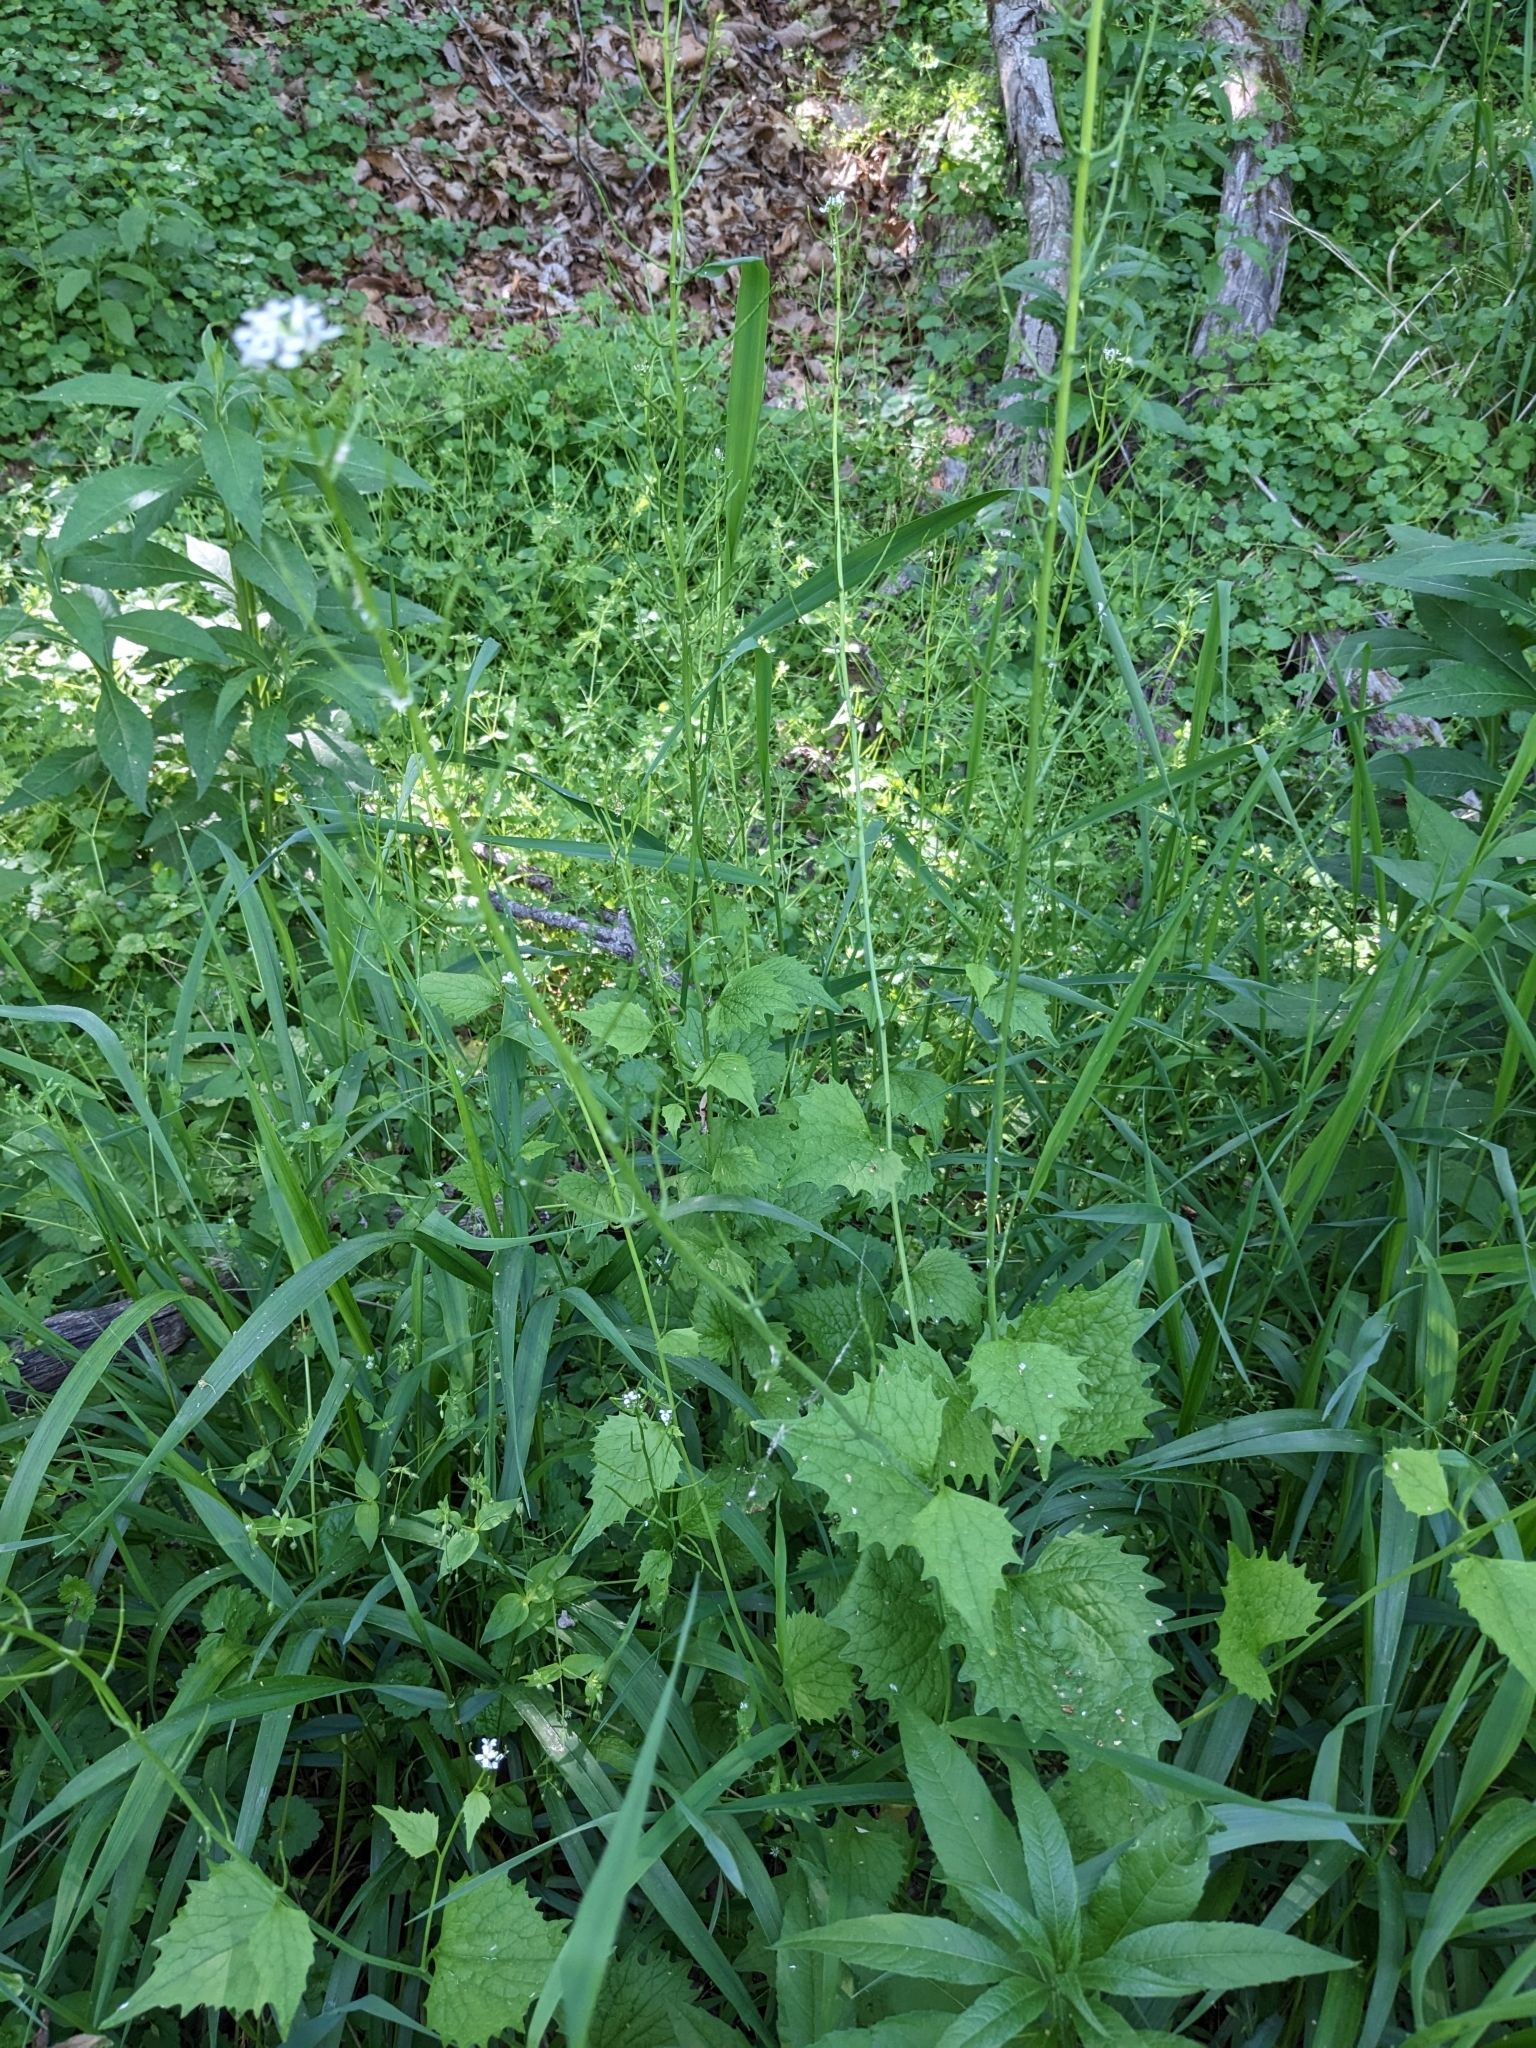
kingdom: Plantae
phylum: Tracheophyta
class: Magnoliopsida
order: Brassicales
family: Brassicaceae
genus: Alliaria
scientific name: Alliaria petiolata
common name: Garlic mustard
